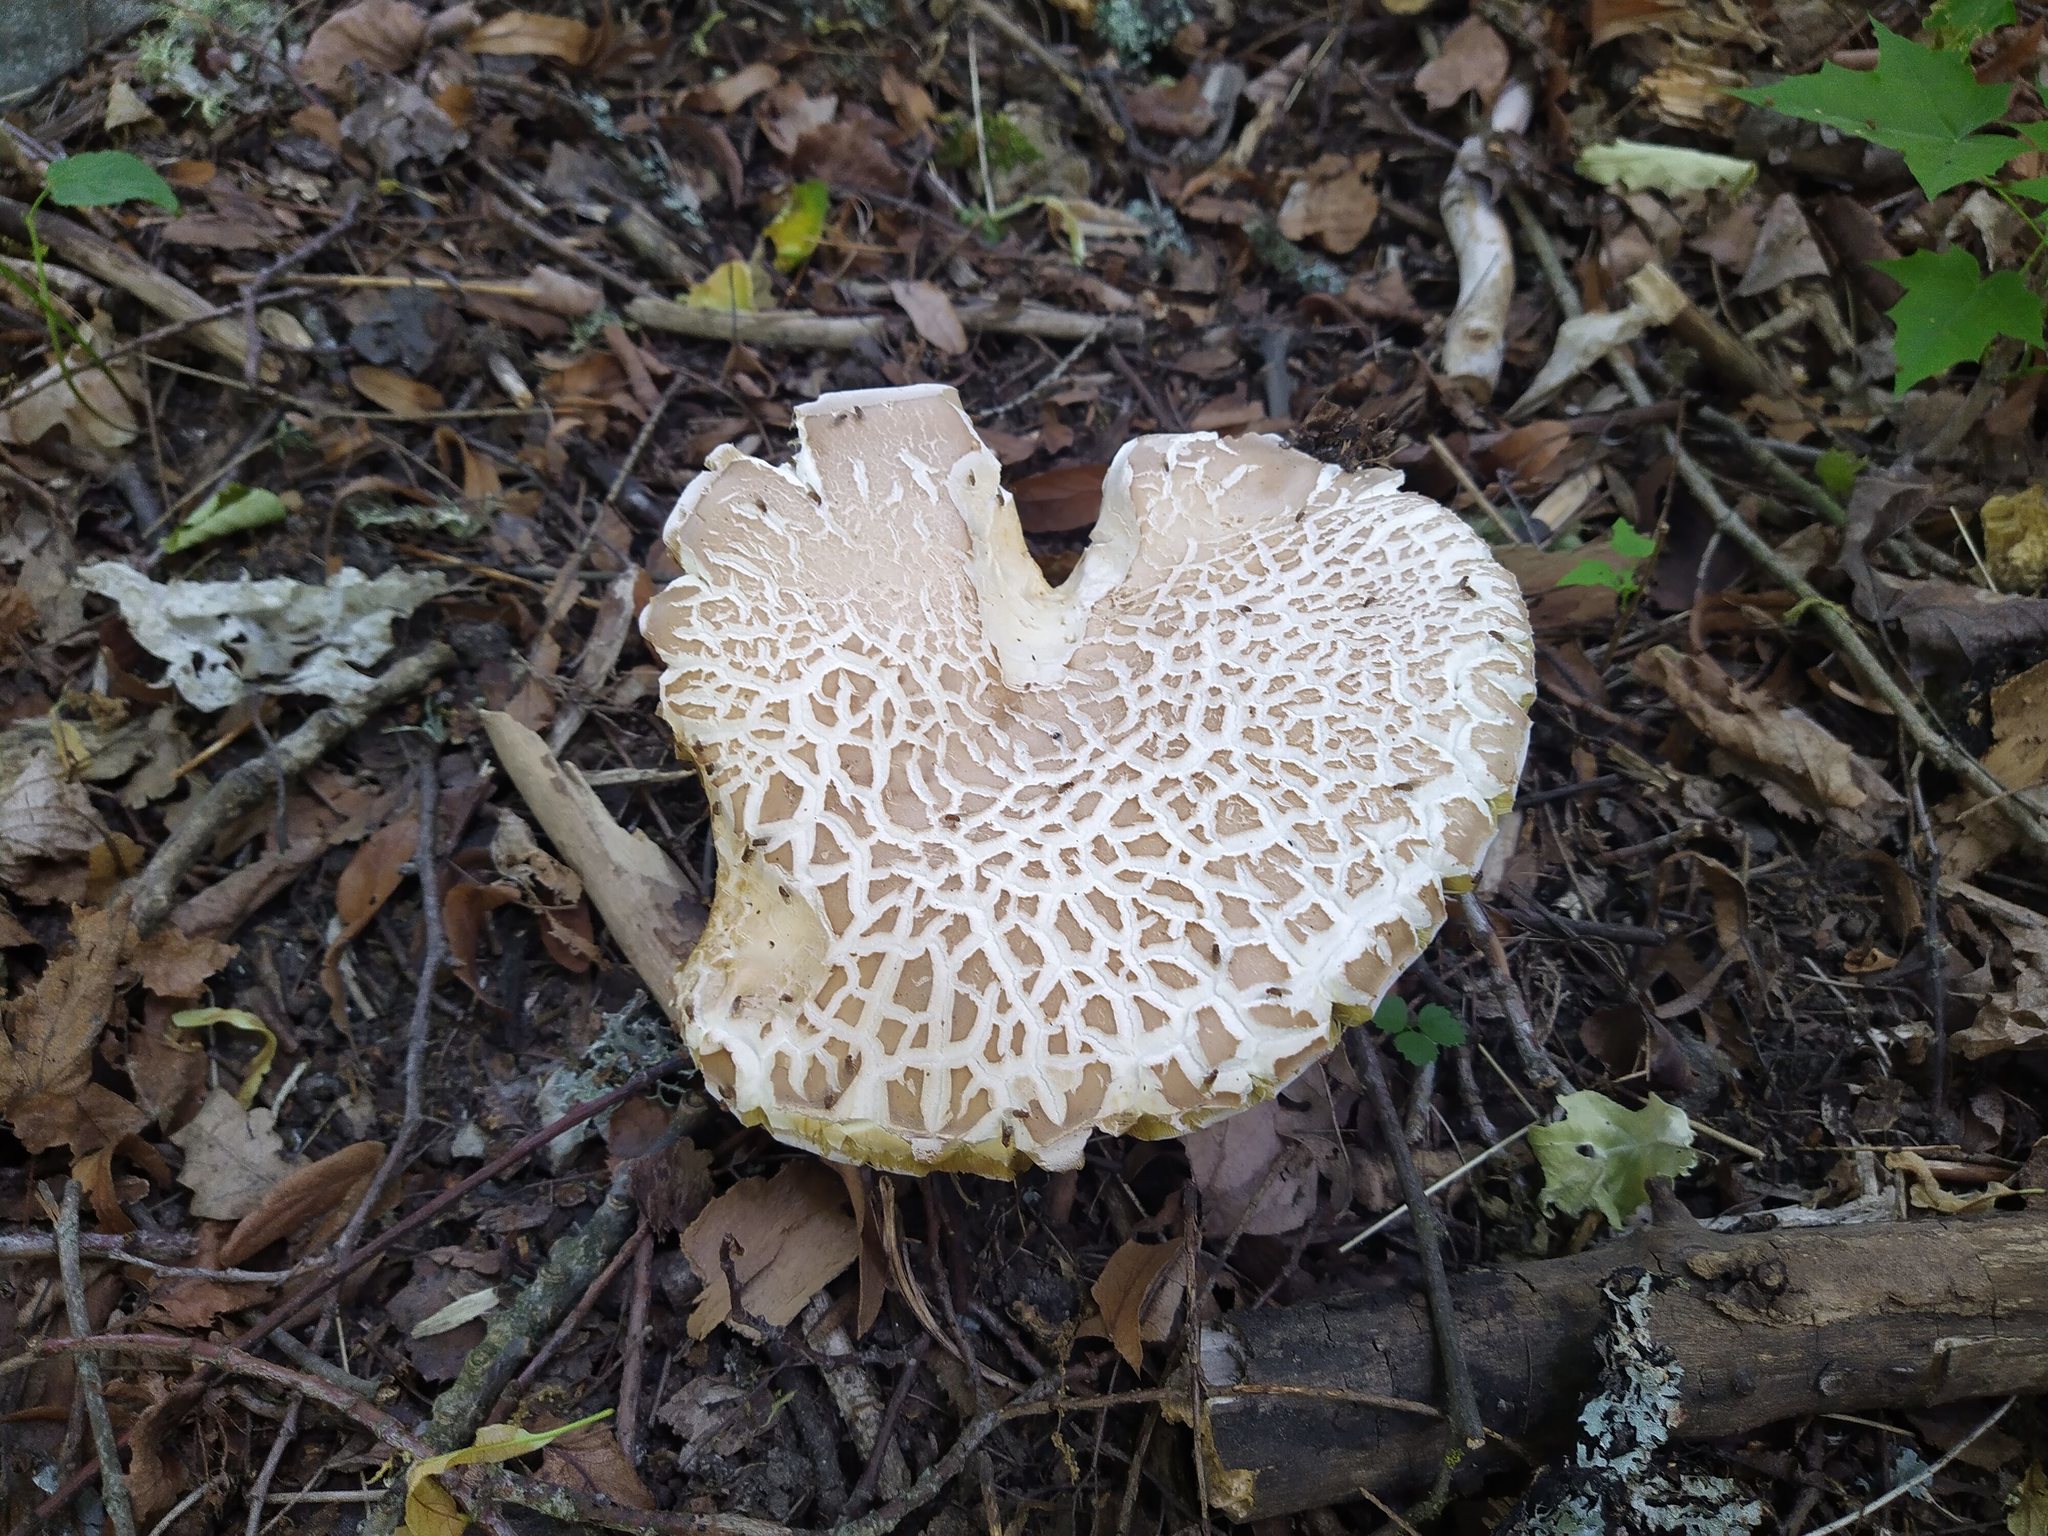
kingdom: Fungi
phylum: Basidiomycota
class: Agaricomycetes
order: Boletales
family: Boletaceae
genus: Boletus
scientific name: Boletus reticulatus
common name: Summer bolete
